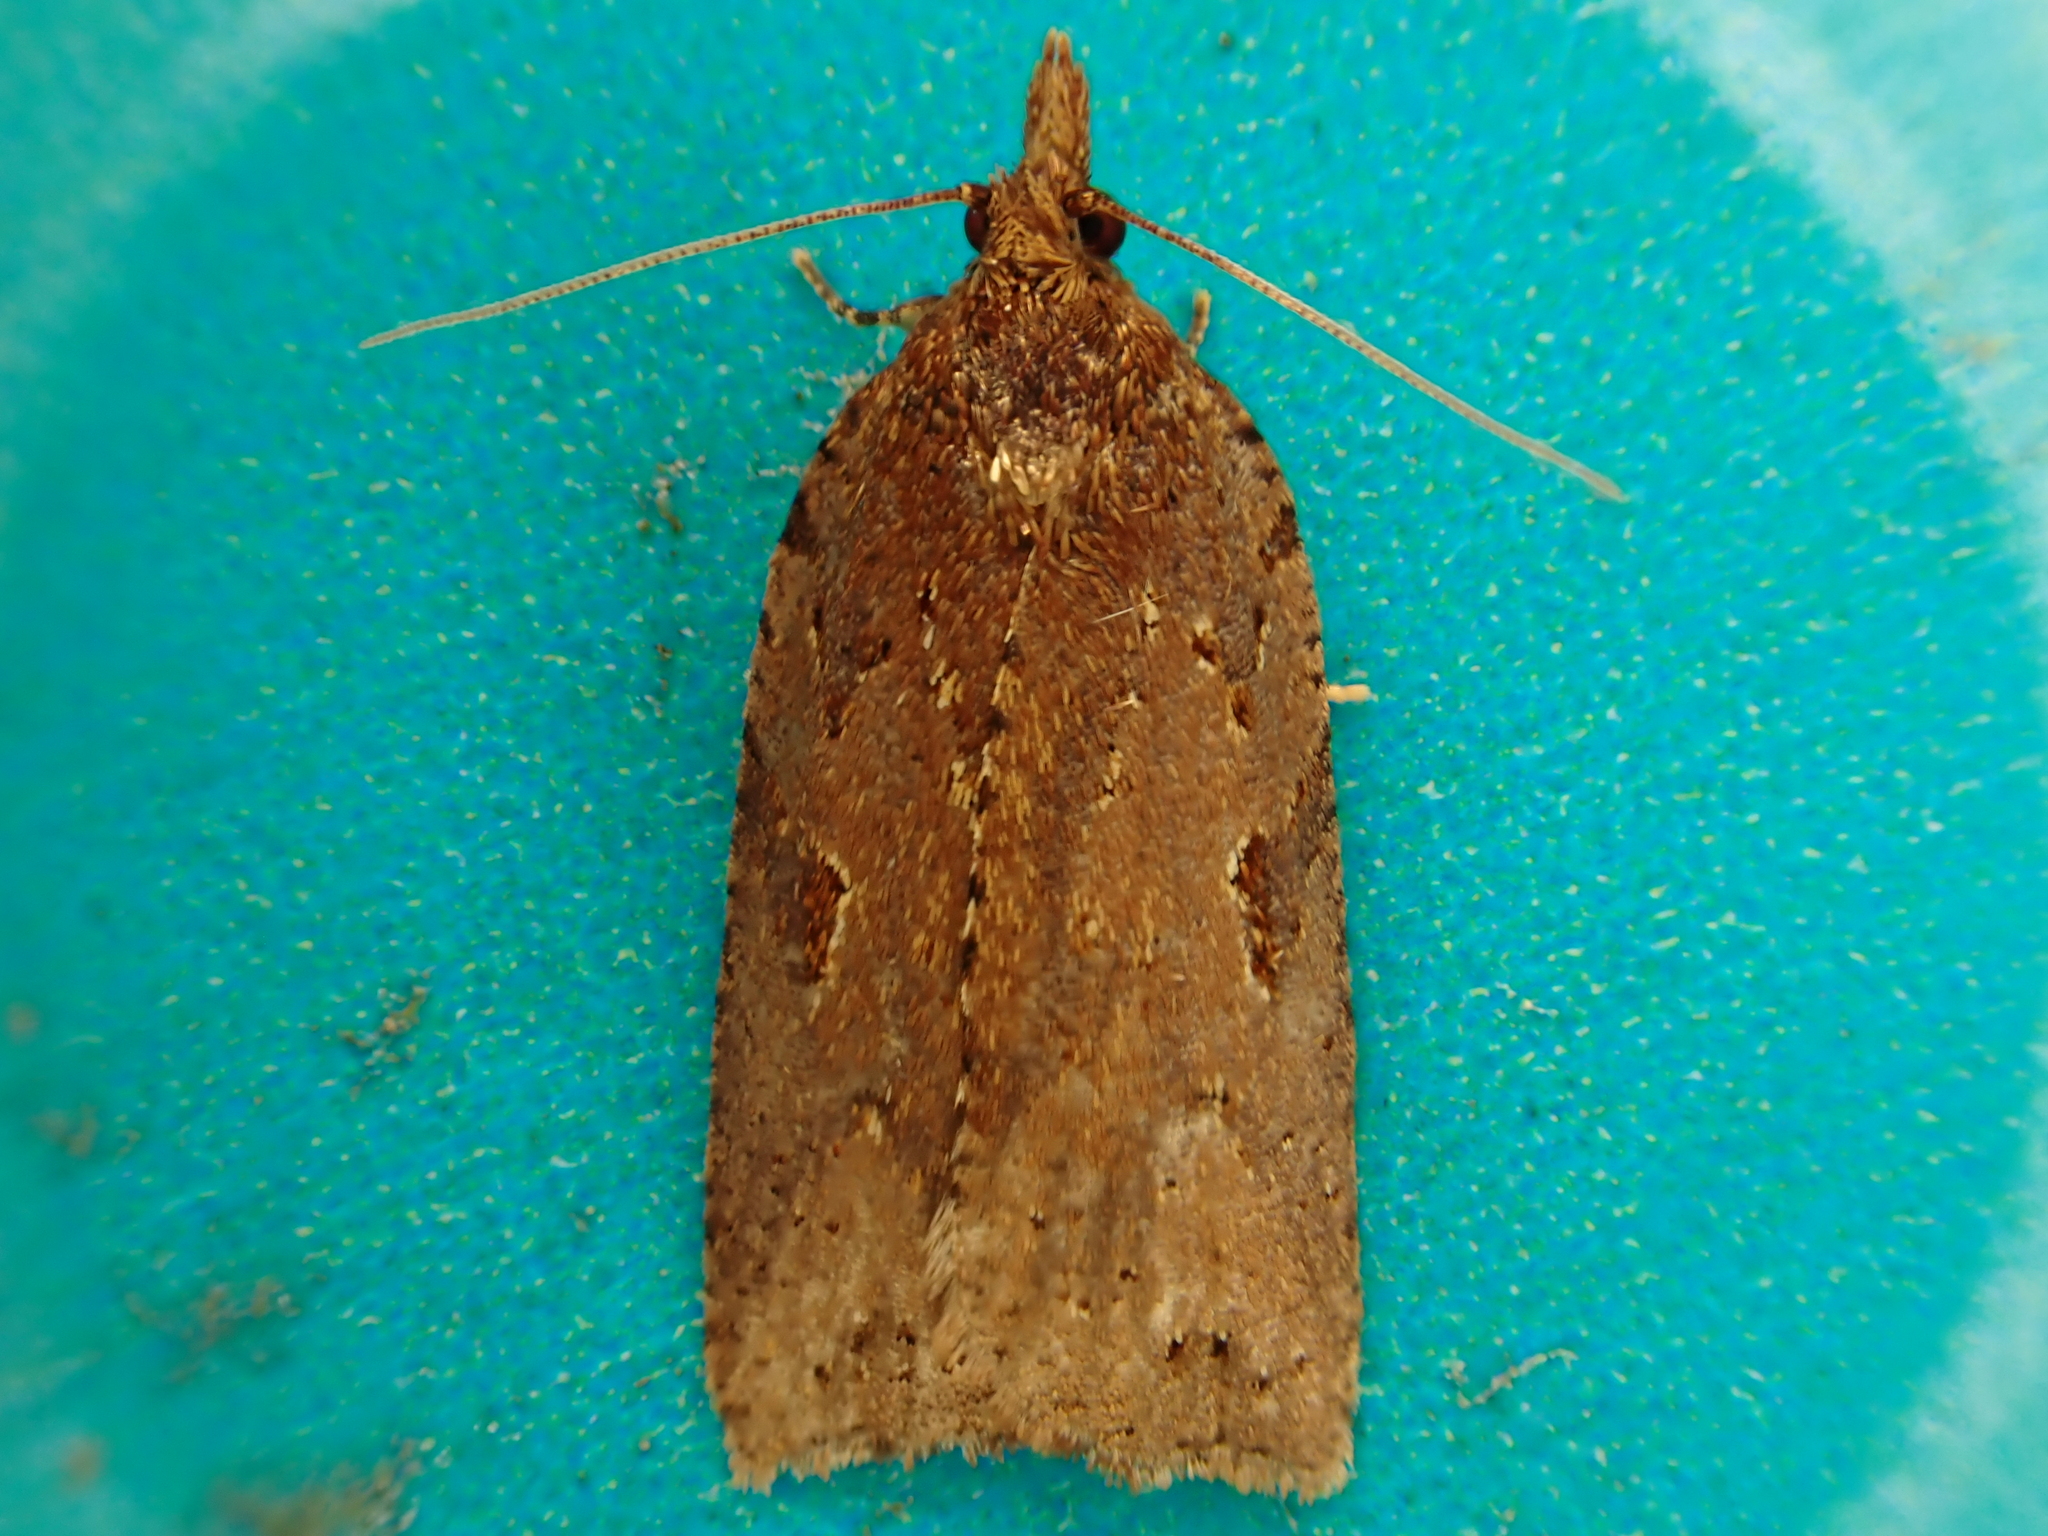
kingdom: Animalia
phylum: Arthropoda
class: Insecta
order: Lepidoptera
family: Tortricidae
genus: Ctenopseustis
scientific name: Ctenopseustis fraterna
